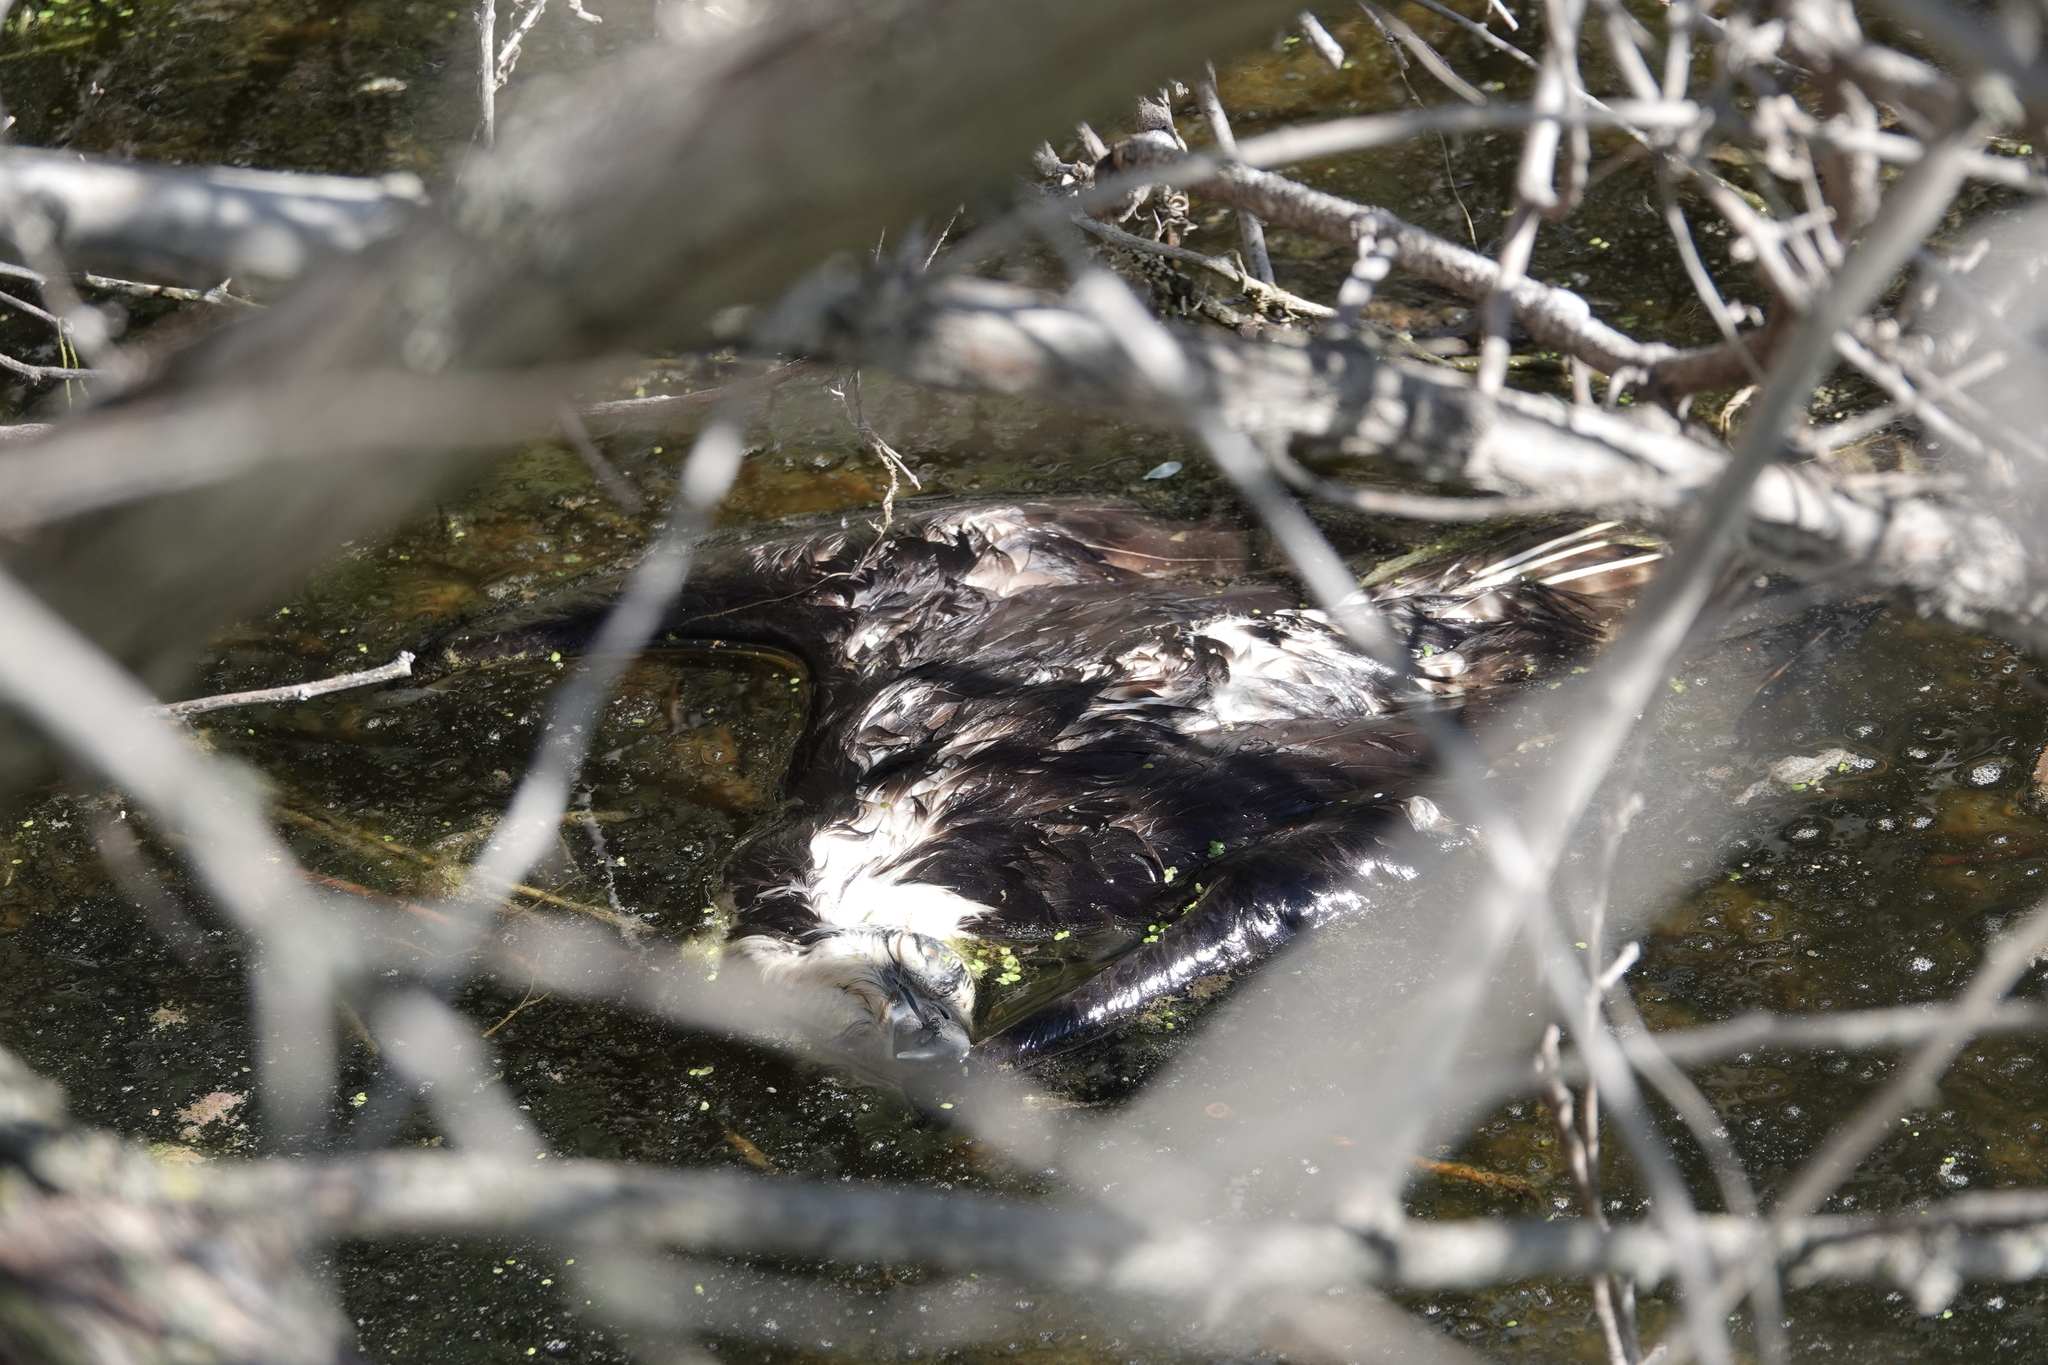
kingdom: Animalia
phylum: Chordata
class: Aves
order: Accipitriformes
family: Pandionidae
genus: Pandion
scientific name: Pandion haliaetus
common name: Osprey
